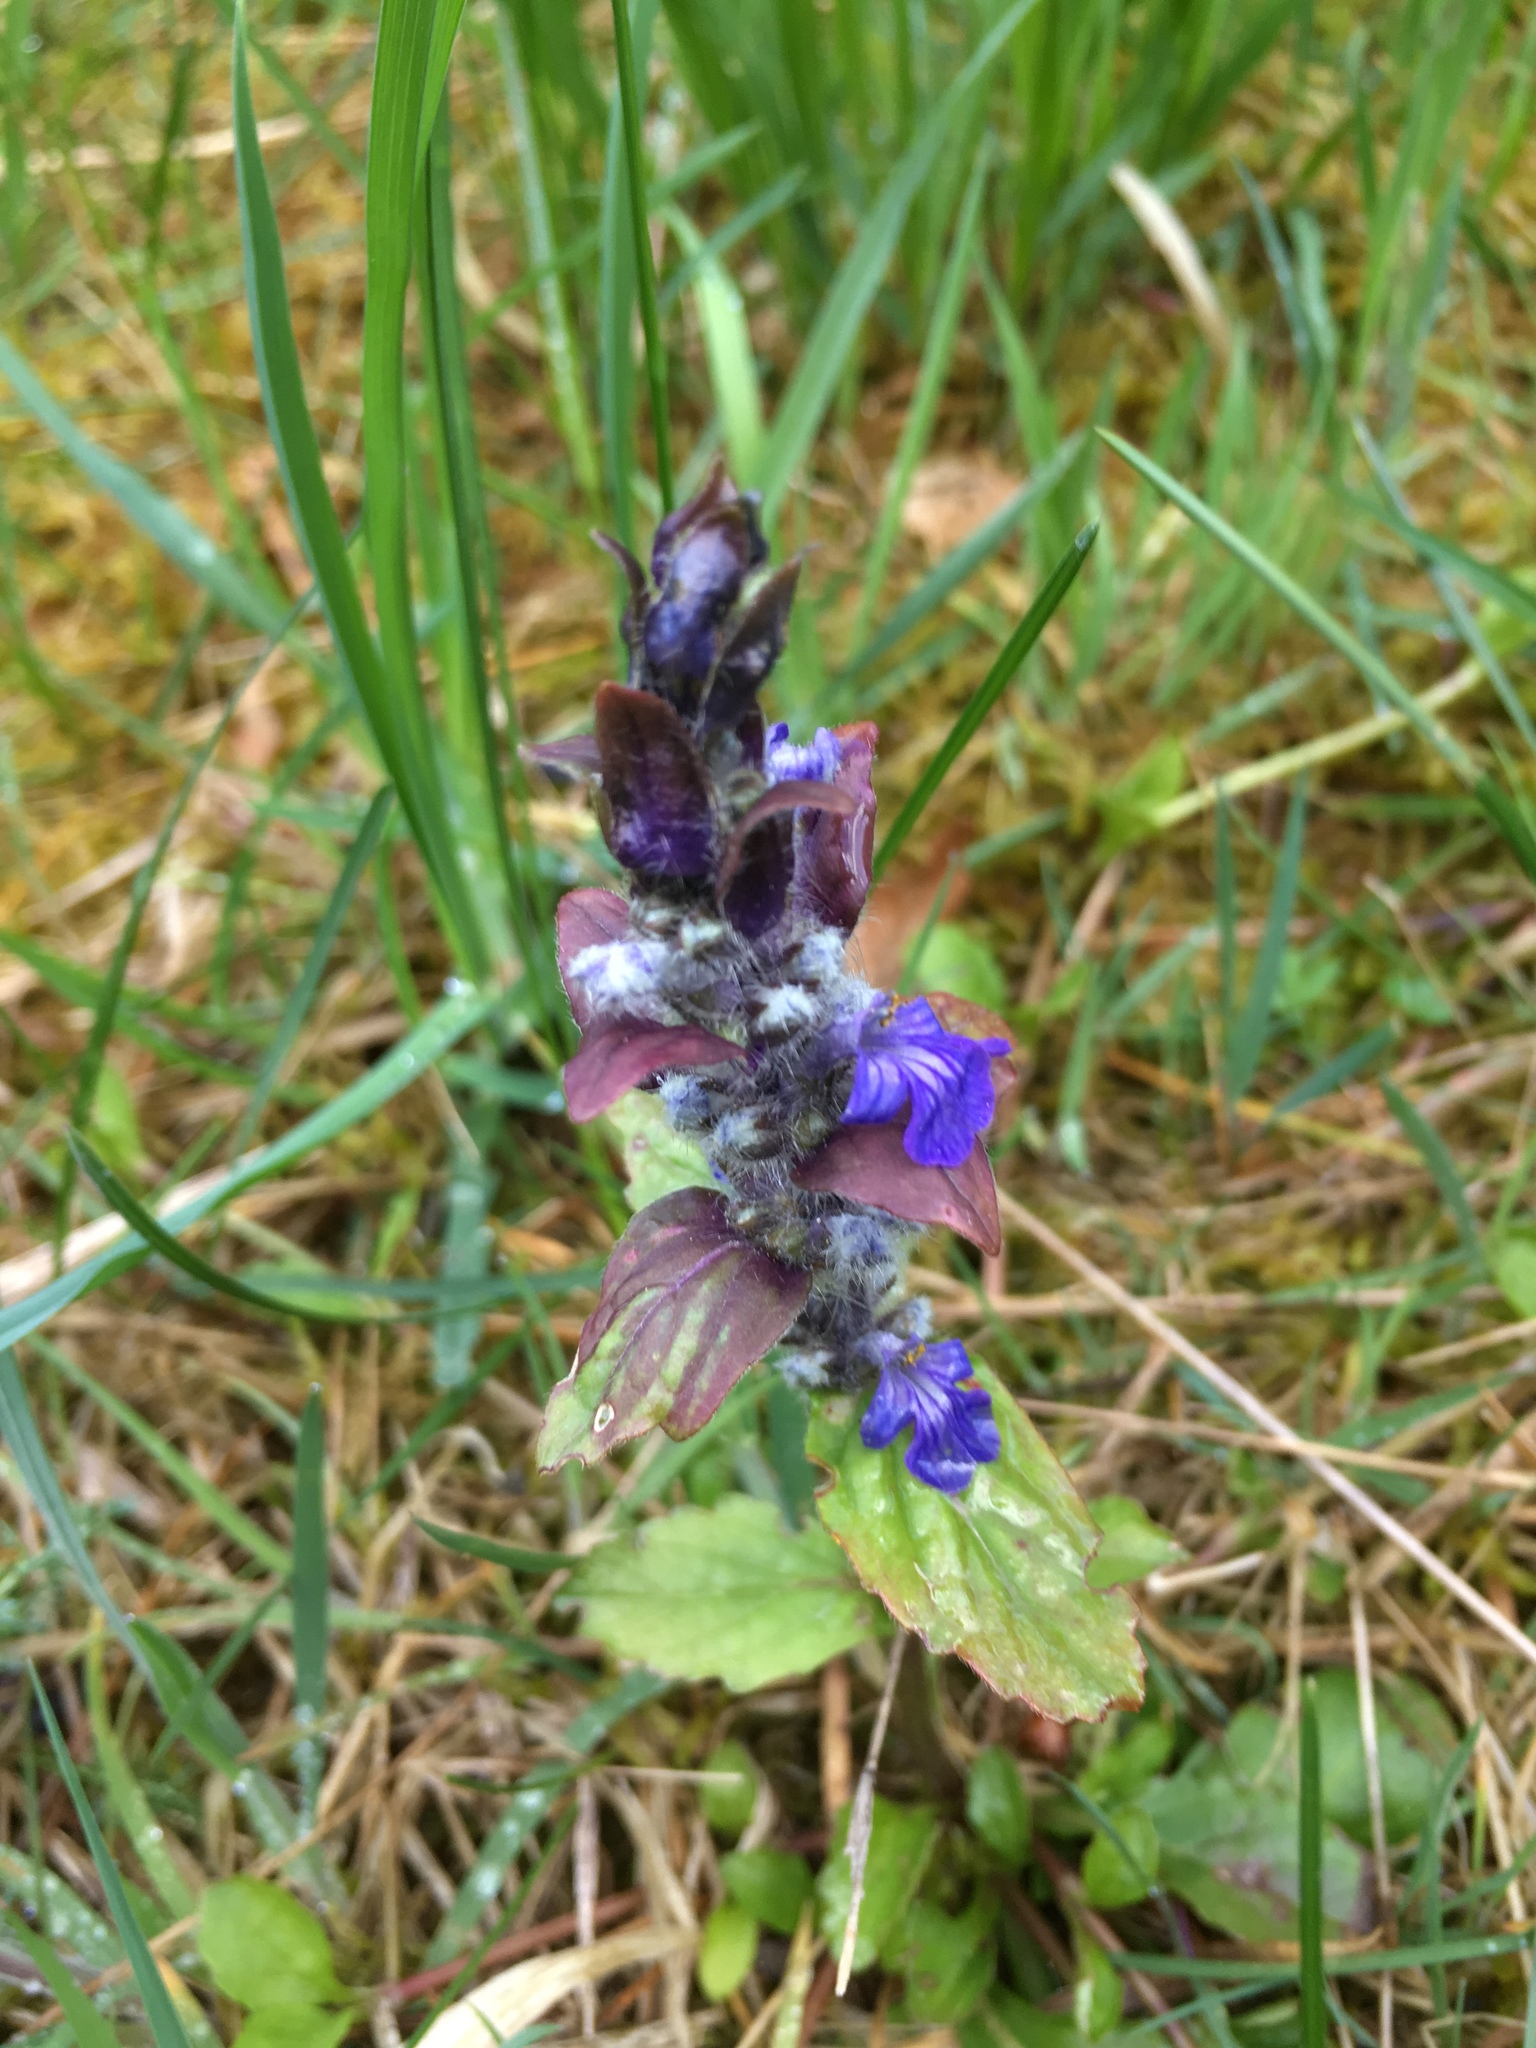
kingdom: Plantae
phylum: Tracheophyta
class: Magnoliopsida
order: Lamiales
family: Lamiaceae
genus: Ajuga
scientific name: Ajuga reptans
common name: Bugle
